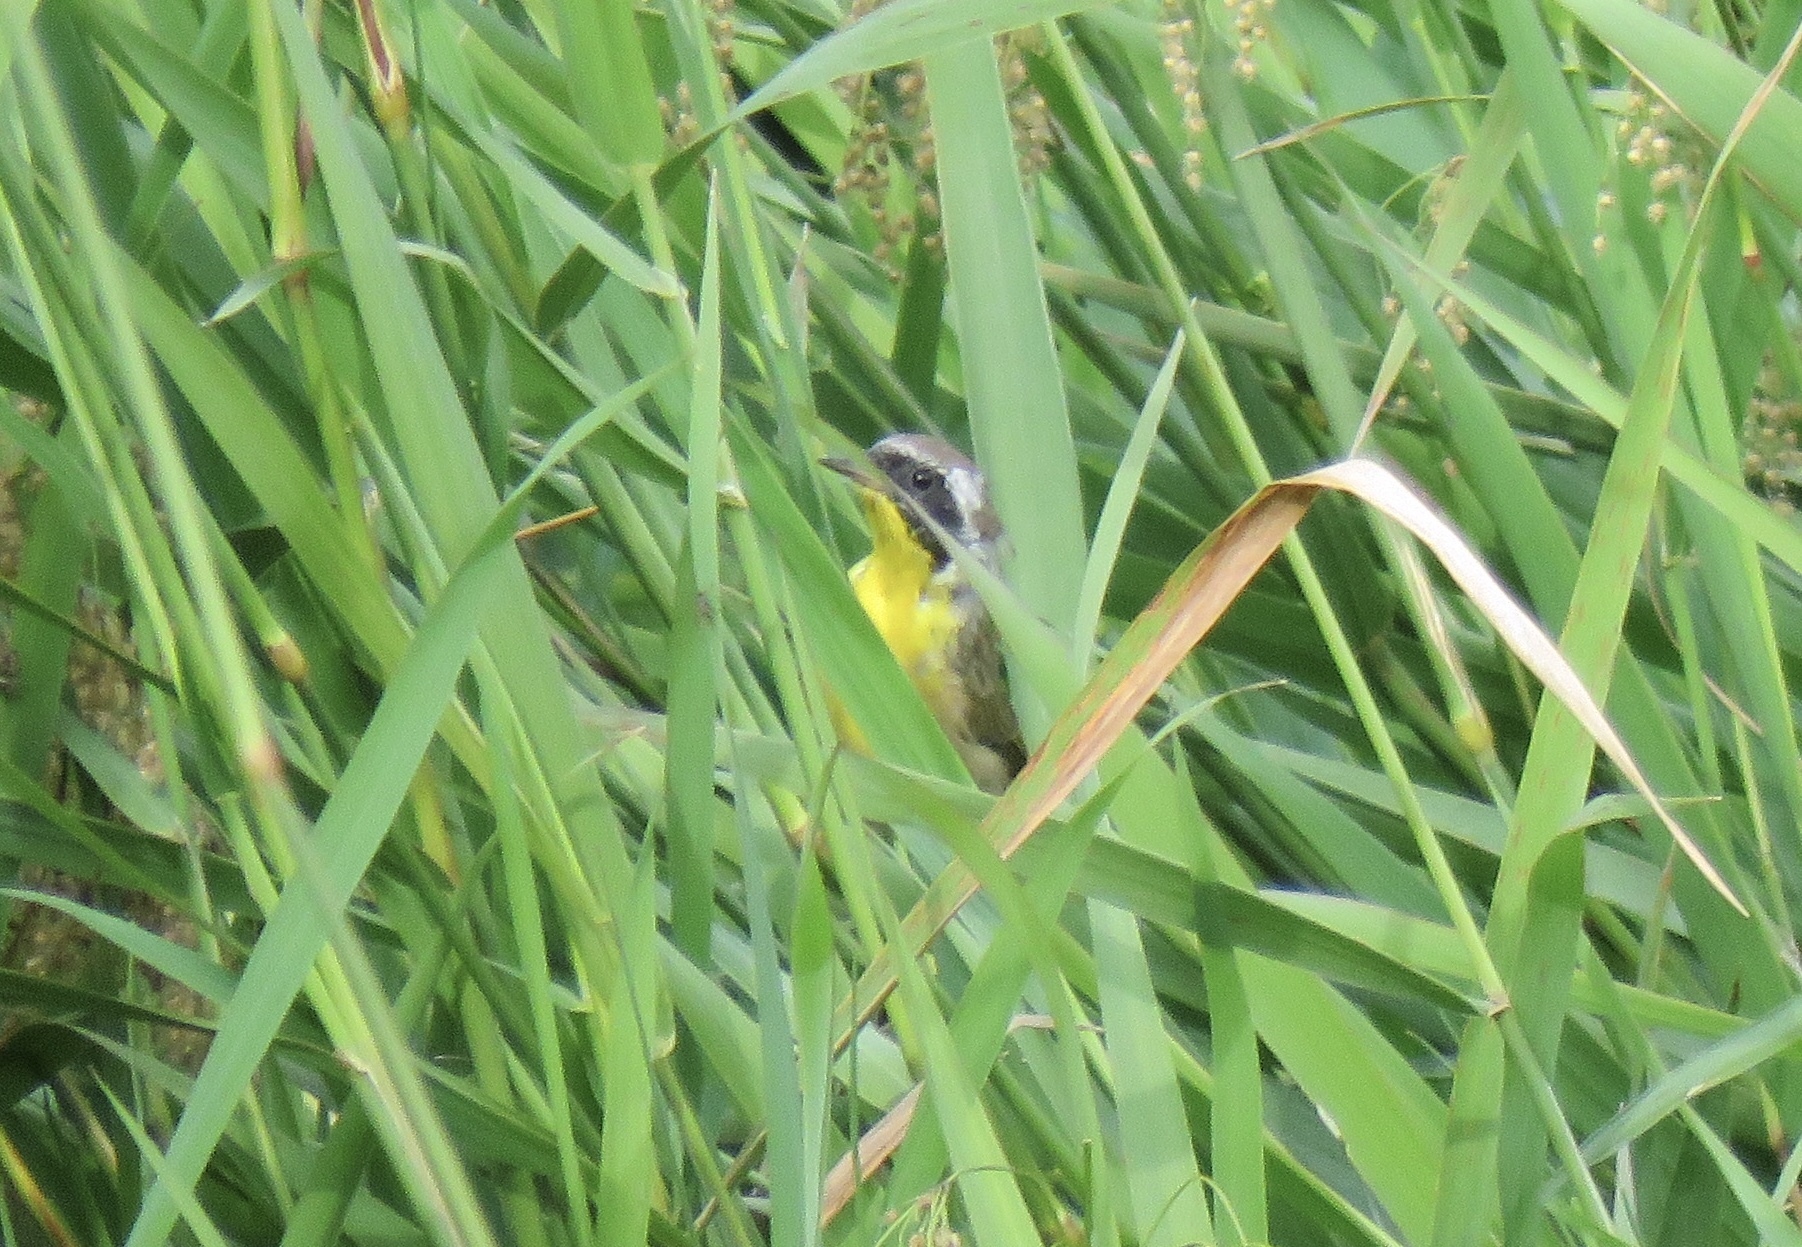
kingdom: Animalia
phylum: Chordata
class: Aves
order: Passeriformes
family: Parulidae
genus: Geothlypis
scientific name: Geothlypis trichas
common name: Common yellowthroat
